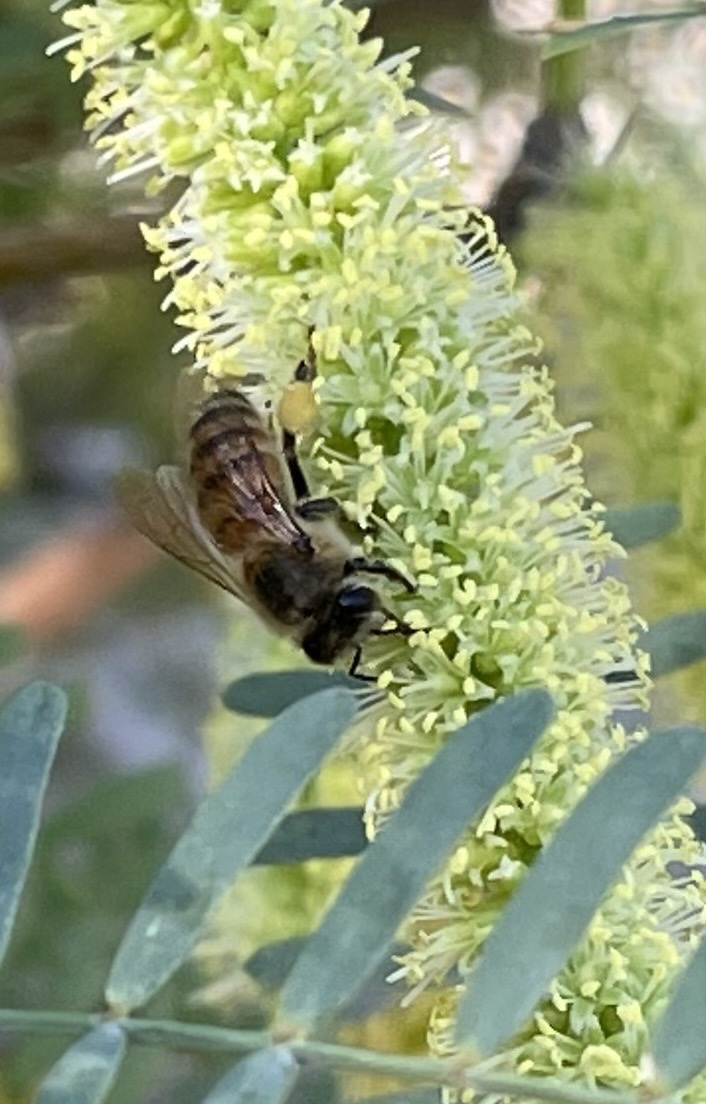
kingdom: Animalia
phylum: Arthropoda
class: Insecta
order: Hymenoptera
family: Apidae
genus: Apis
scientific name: Apis mellifera
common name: Honey bee
